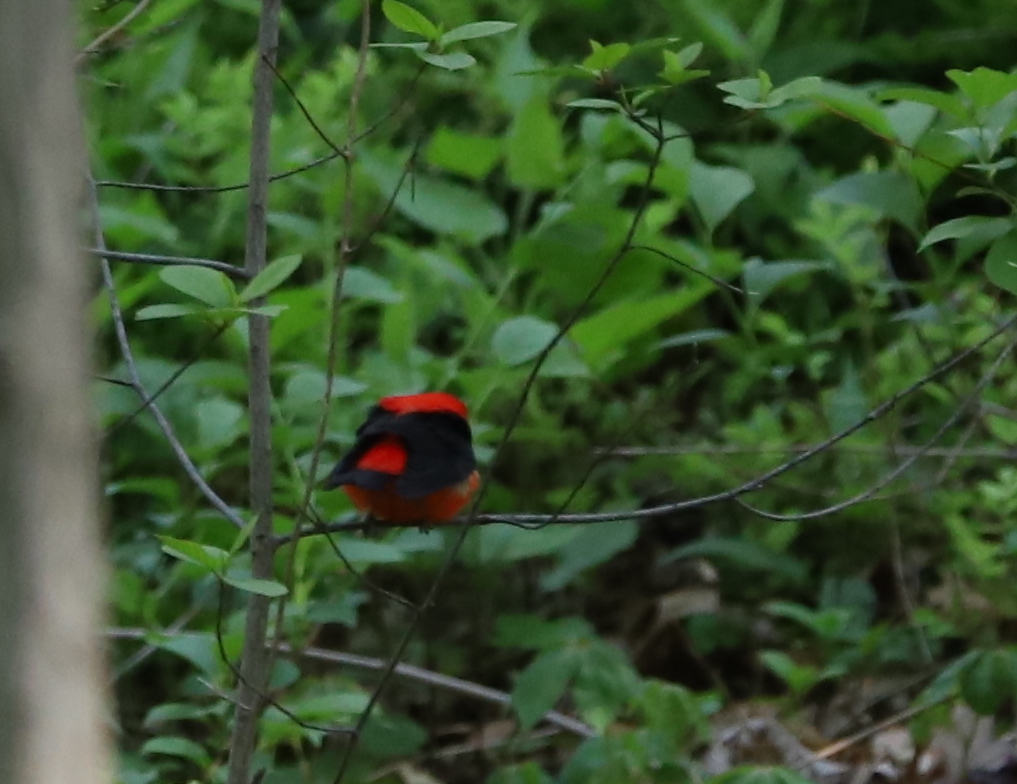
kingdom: Animalia
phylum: Chordata
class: Aves
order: Passeriformes
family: Cardinalidae
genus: Piranga
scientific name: Piranga olivacea
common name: Scarlet tanager
